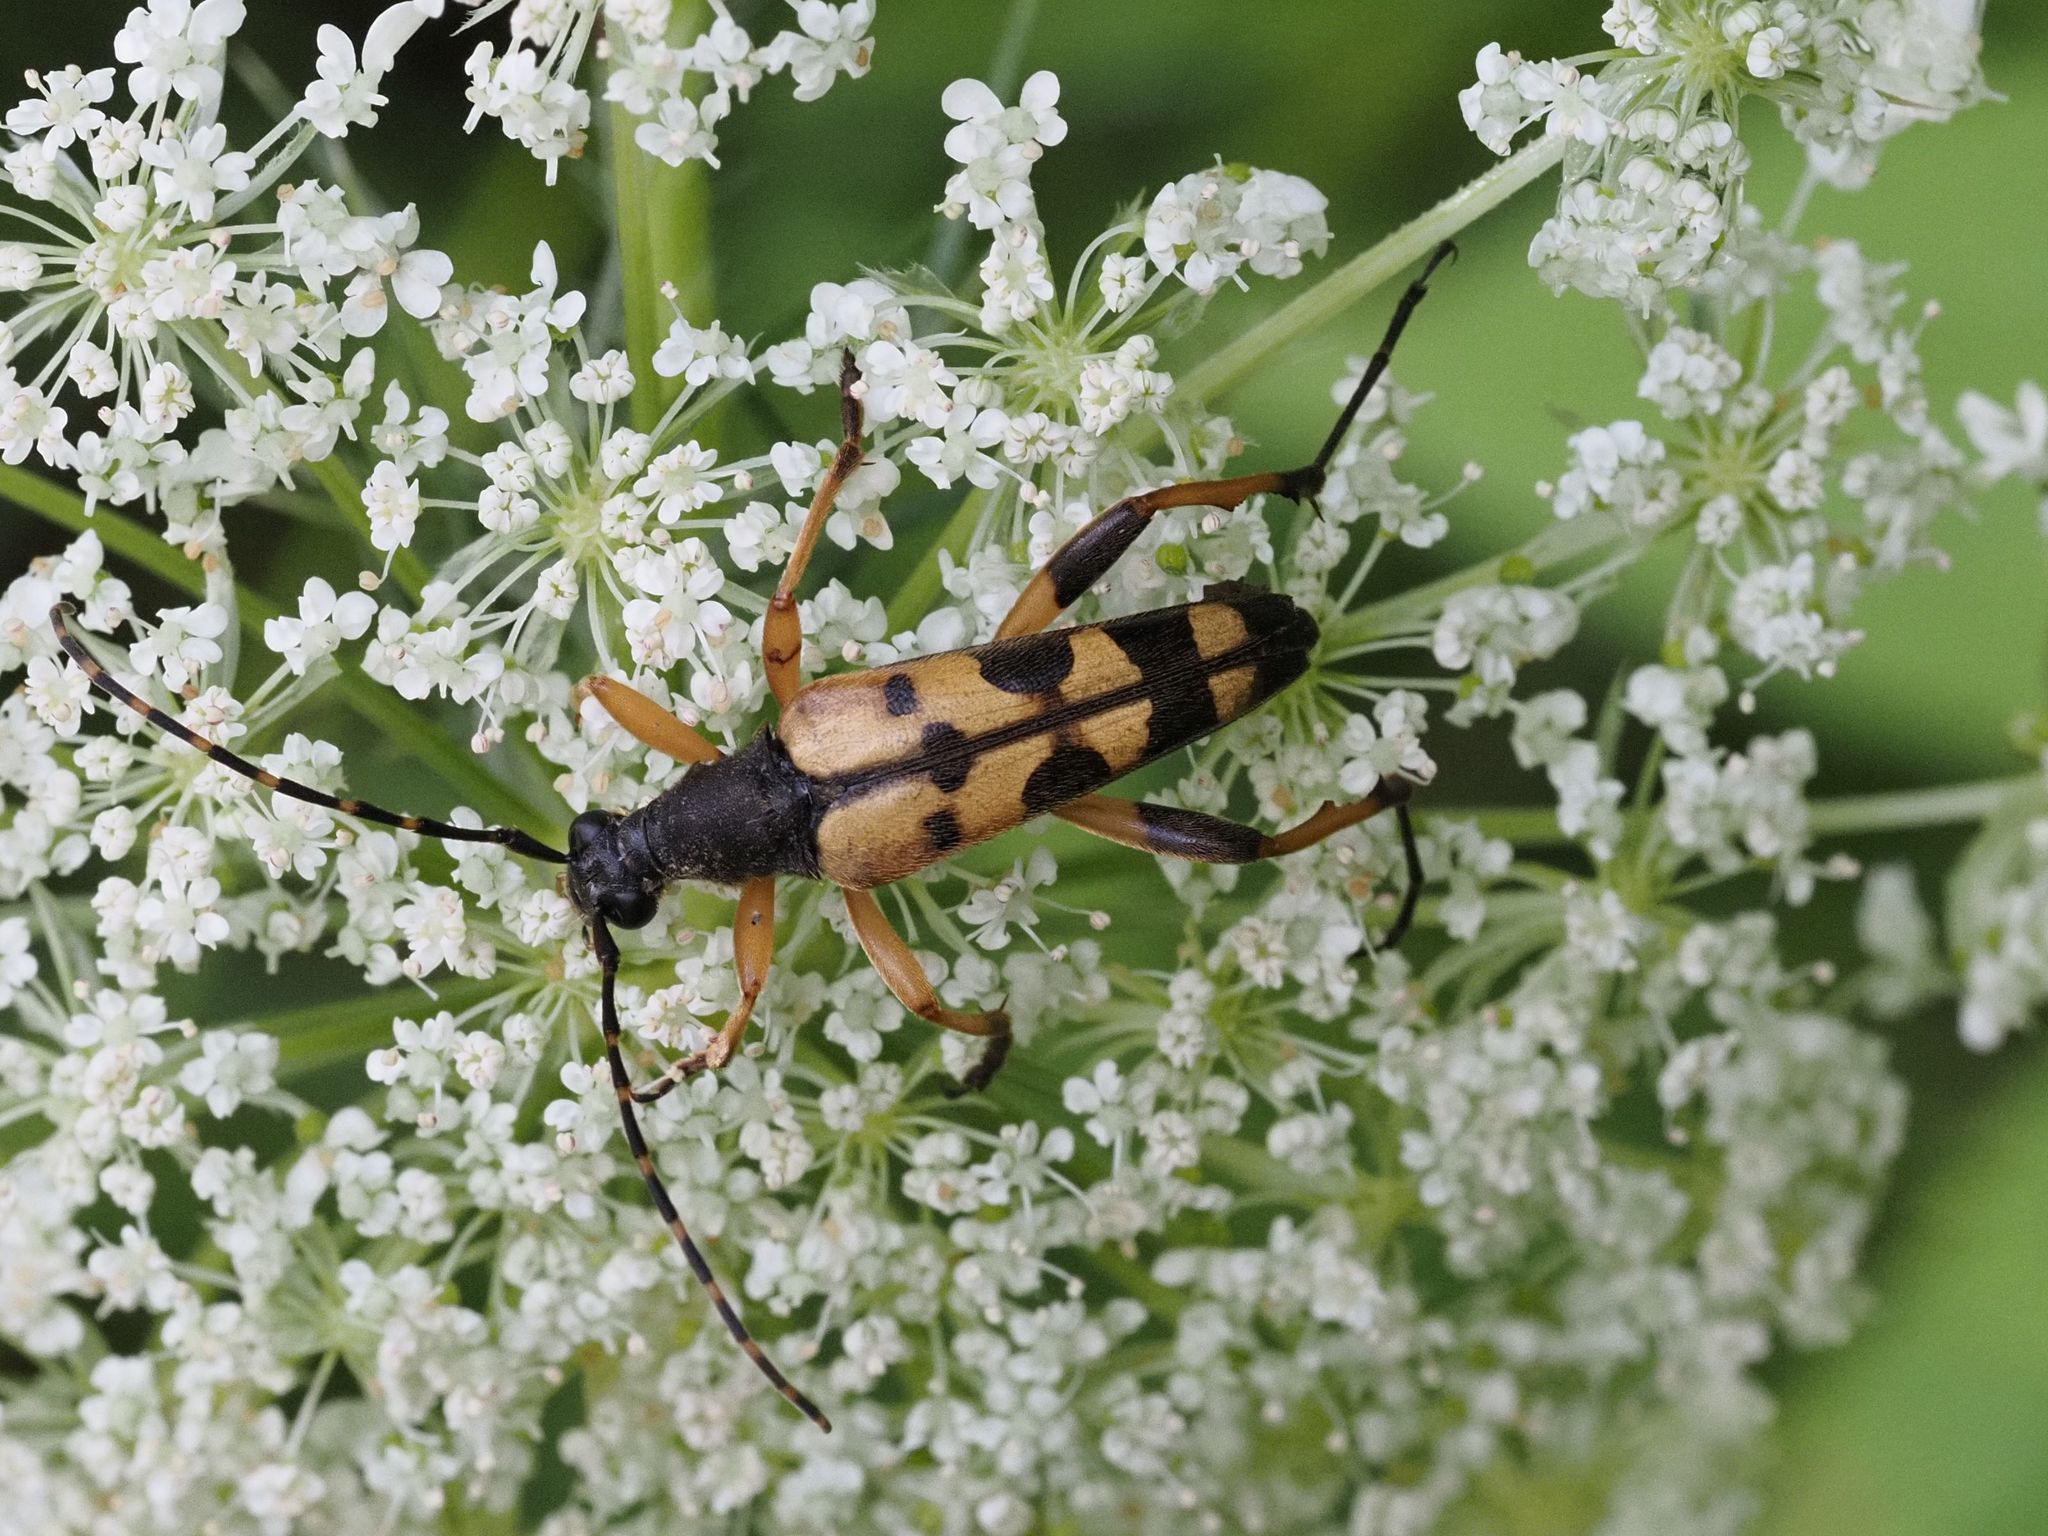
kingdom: Animalia
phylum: Arthropoda
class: Insecta
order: Coleoptera
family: Cerambycidae
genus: Rutpela
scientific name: Rutpela maculata
